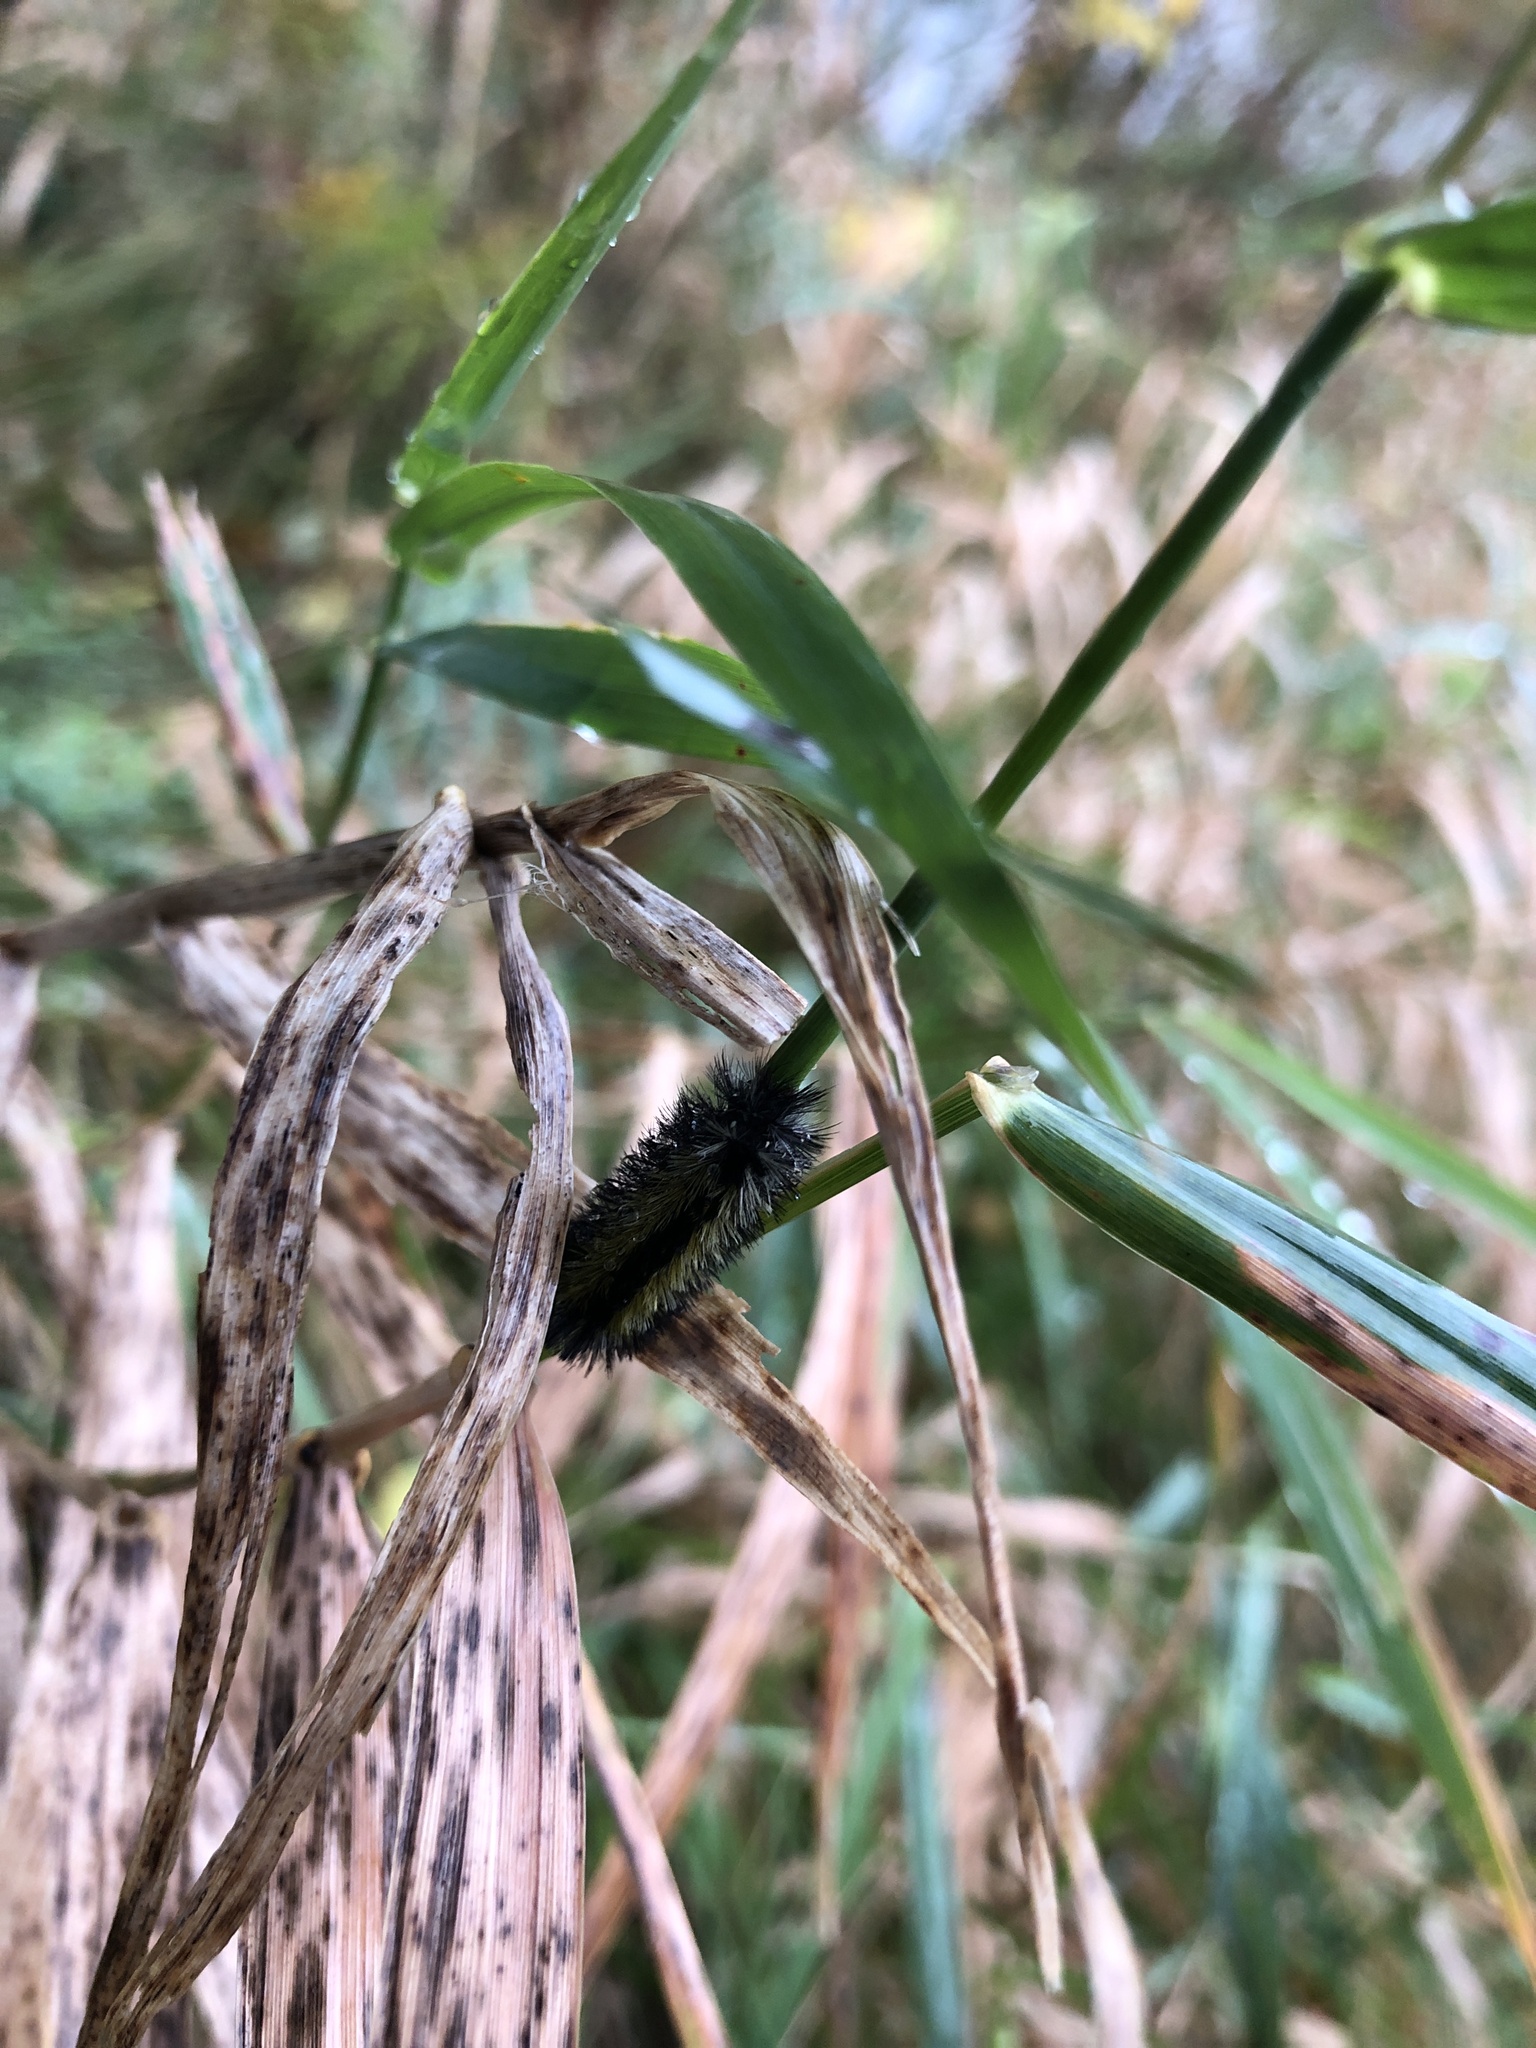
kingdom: Animalia
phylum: Arthropoda
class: Insecta
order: Lepidoptera
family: Erebidae
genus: Ctenucha
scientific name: Ctenucha virginica
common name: Virginia ctenucha moth
